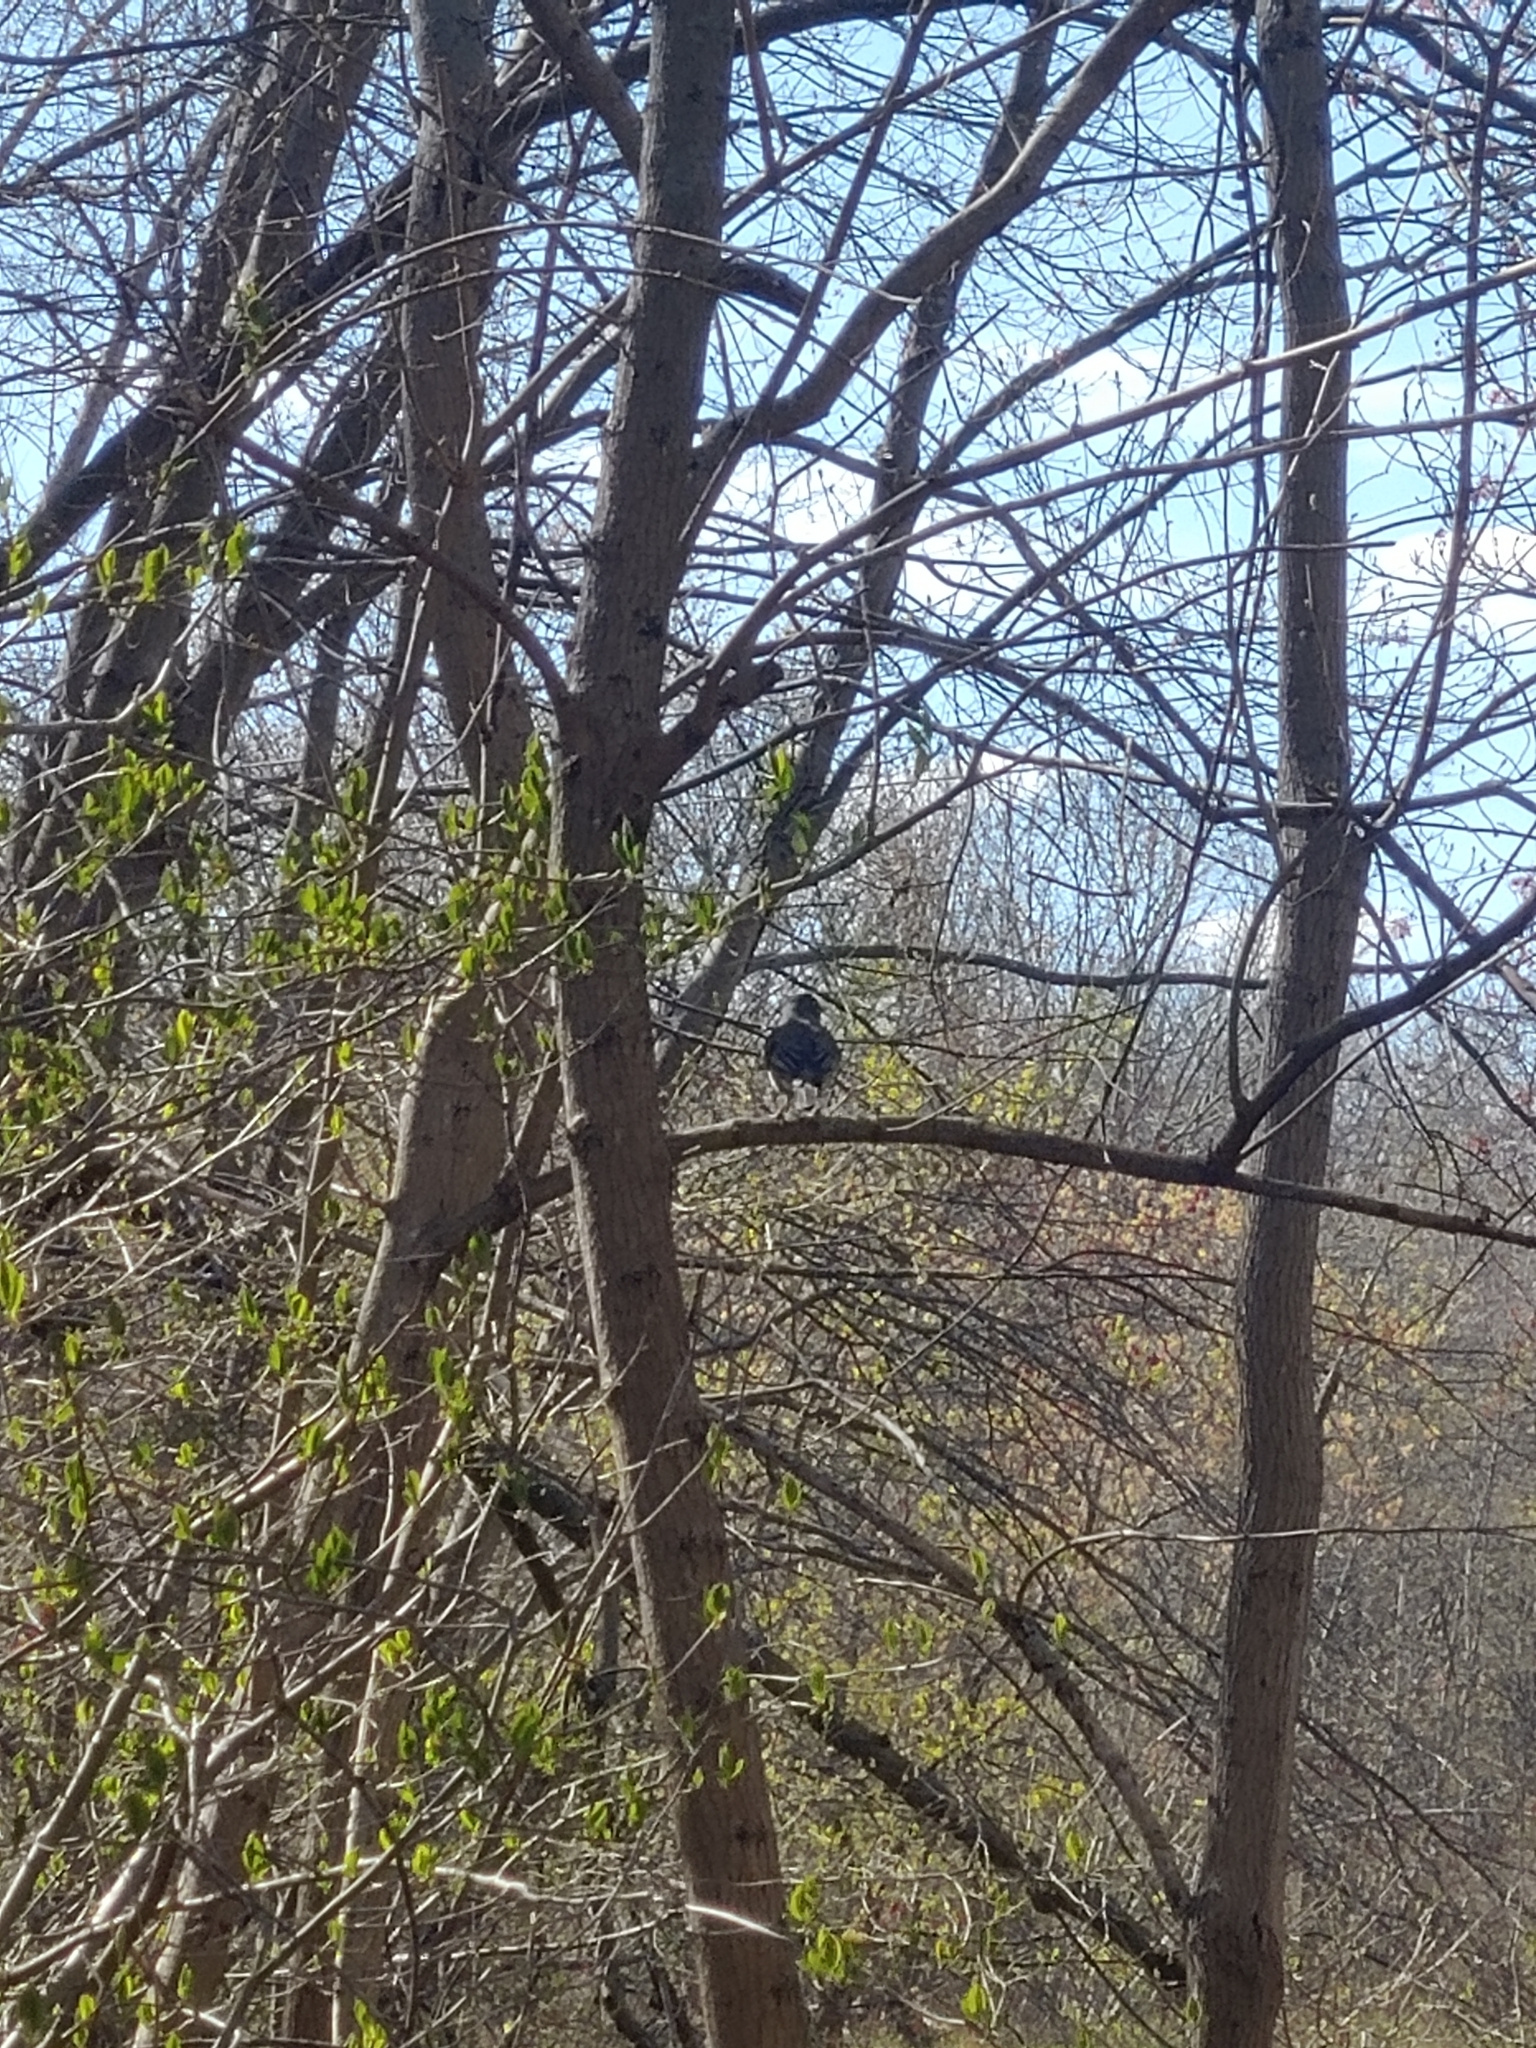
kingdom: Animalia
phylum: Chordata
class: Aves
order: Passeriformes
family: Turdidae
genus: Turdus
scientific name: Turdus migratorius
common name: American robin
